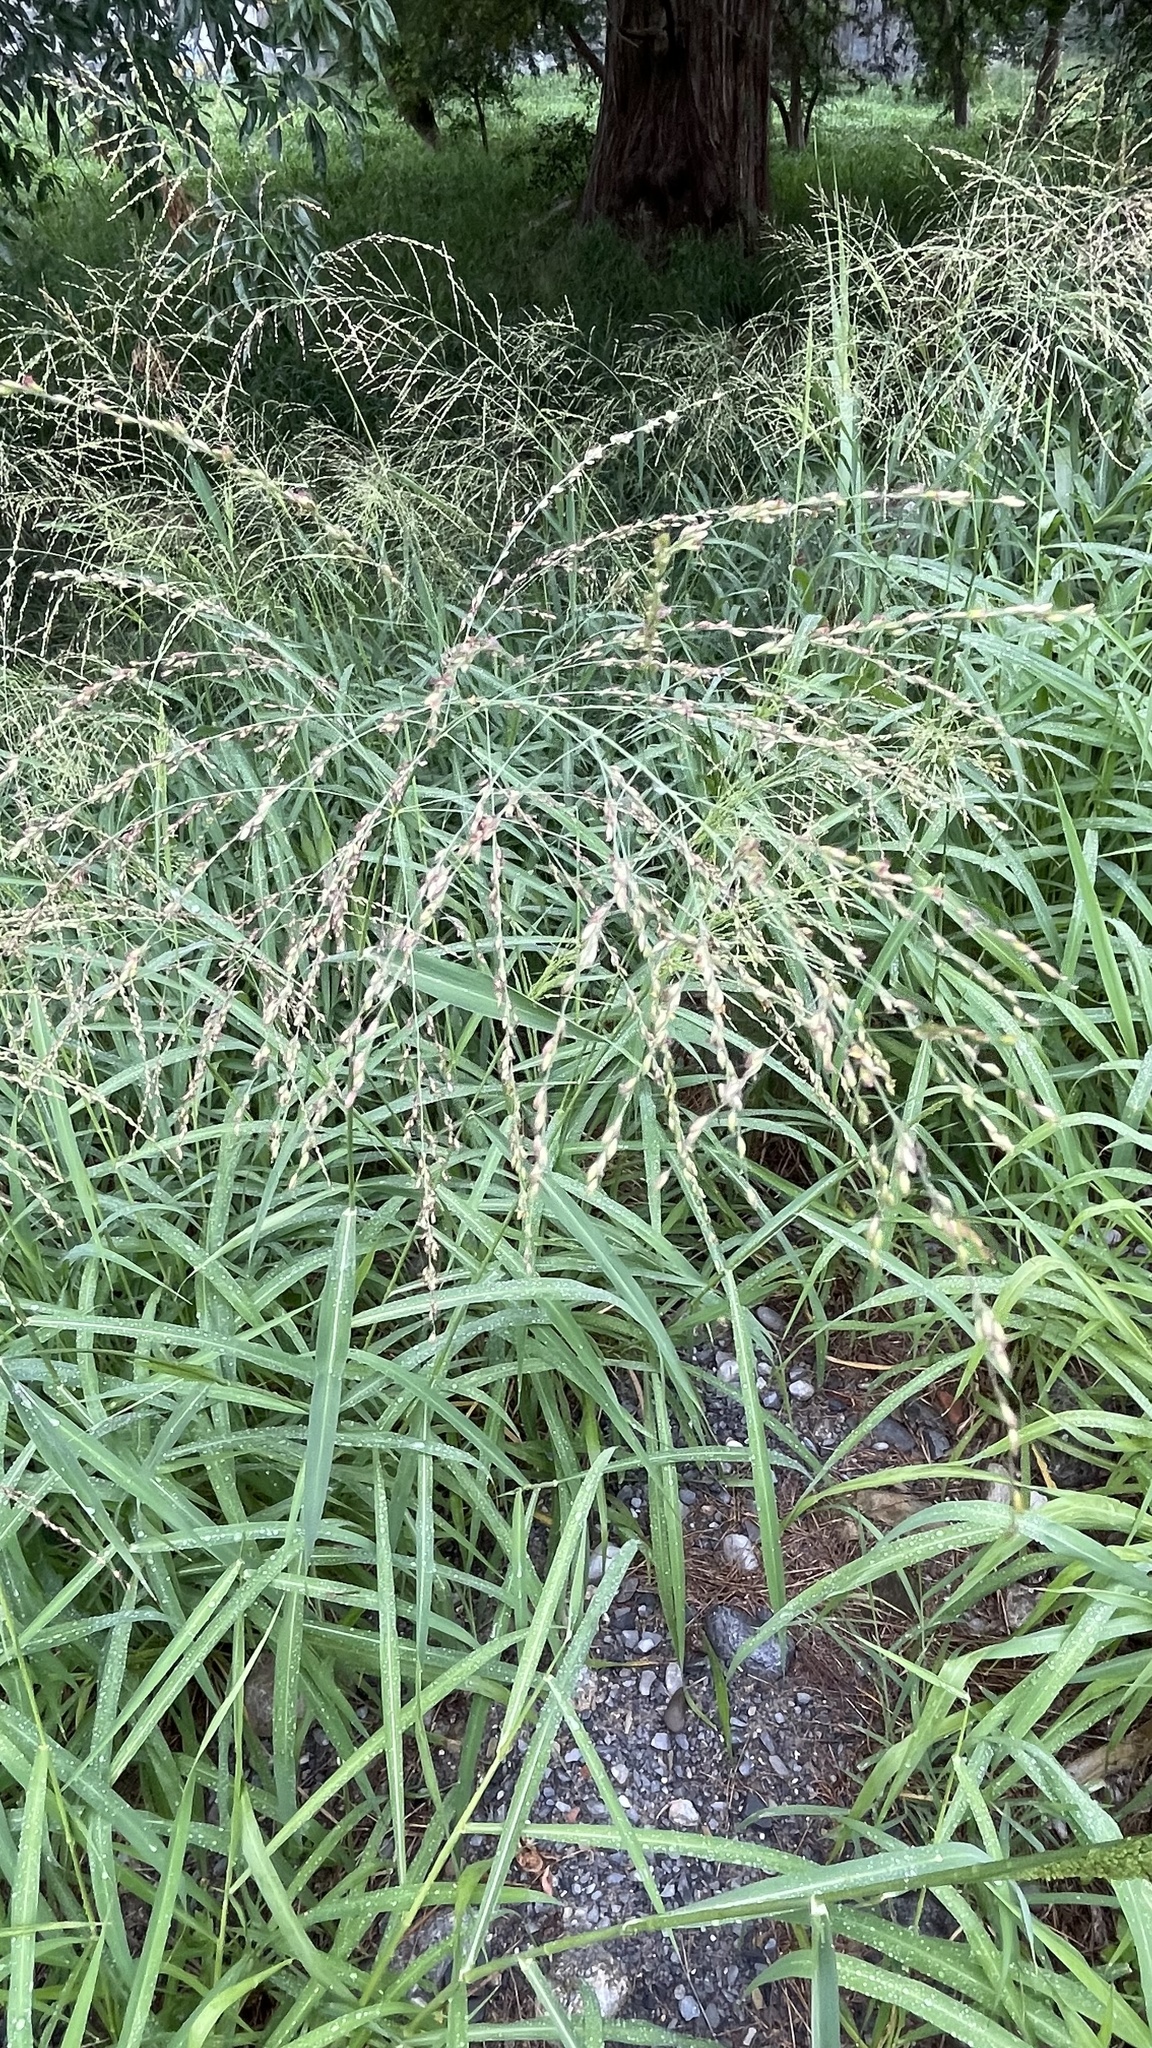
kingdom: Plantae
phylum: Tracheophyta
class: Liliopsida
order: Poales
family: Poaceae
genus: Megathyrsus
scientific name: Megathyrsus maximus
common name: Guineagrass
